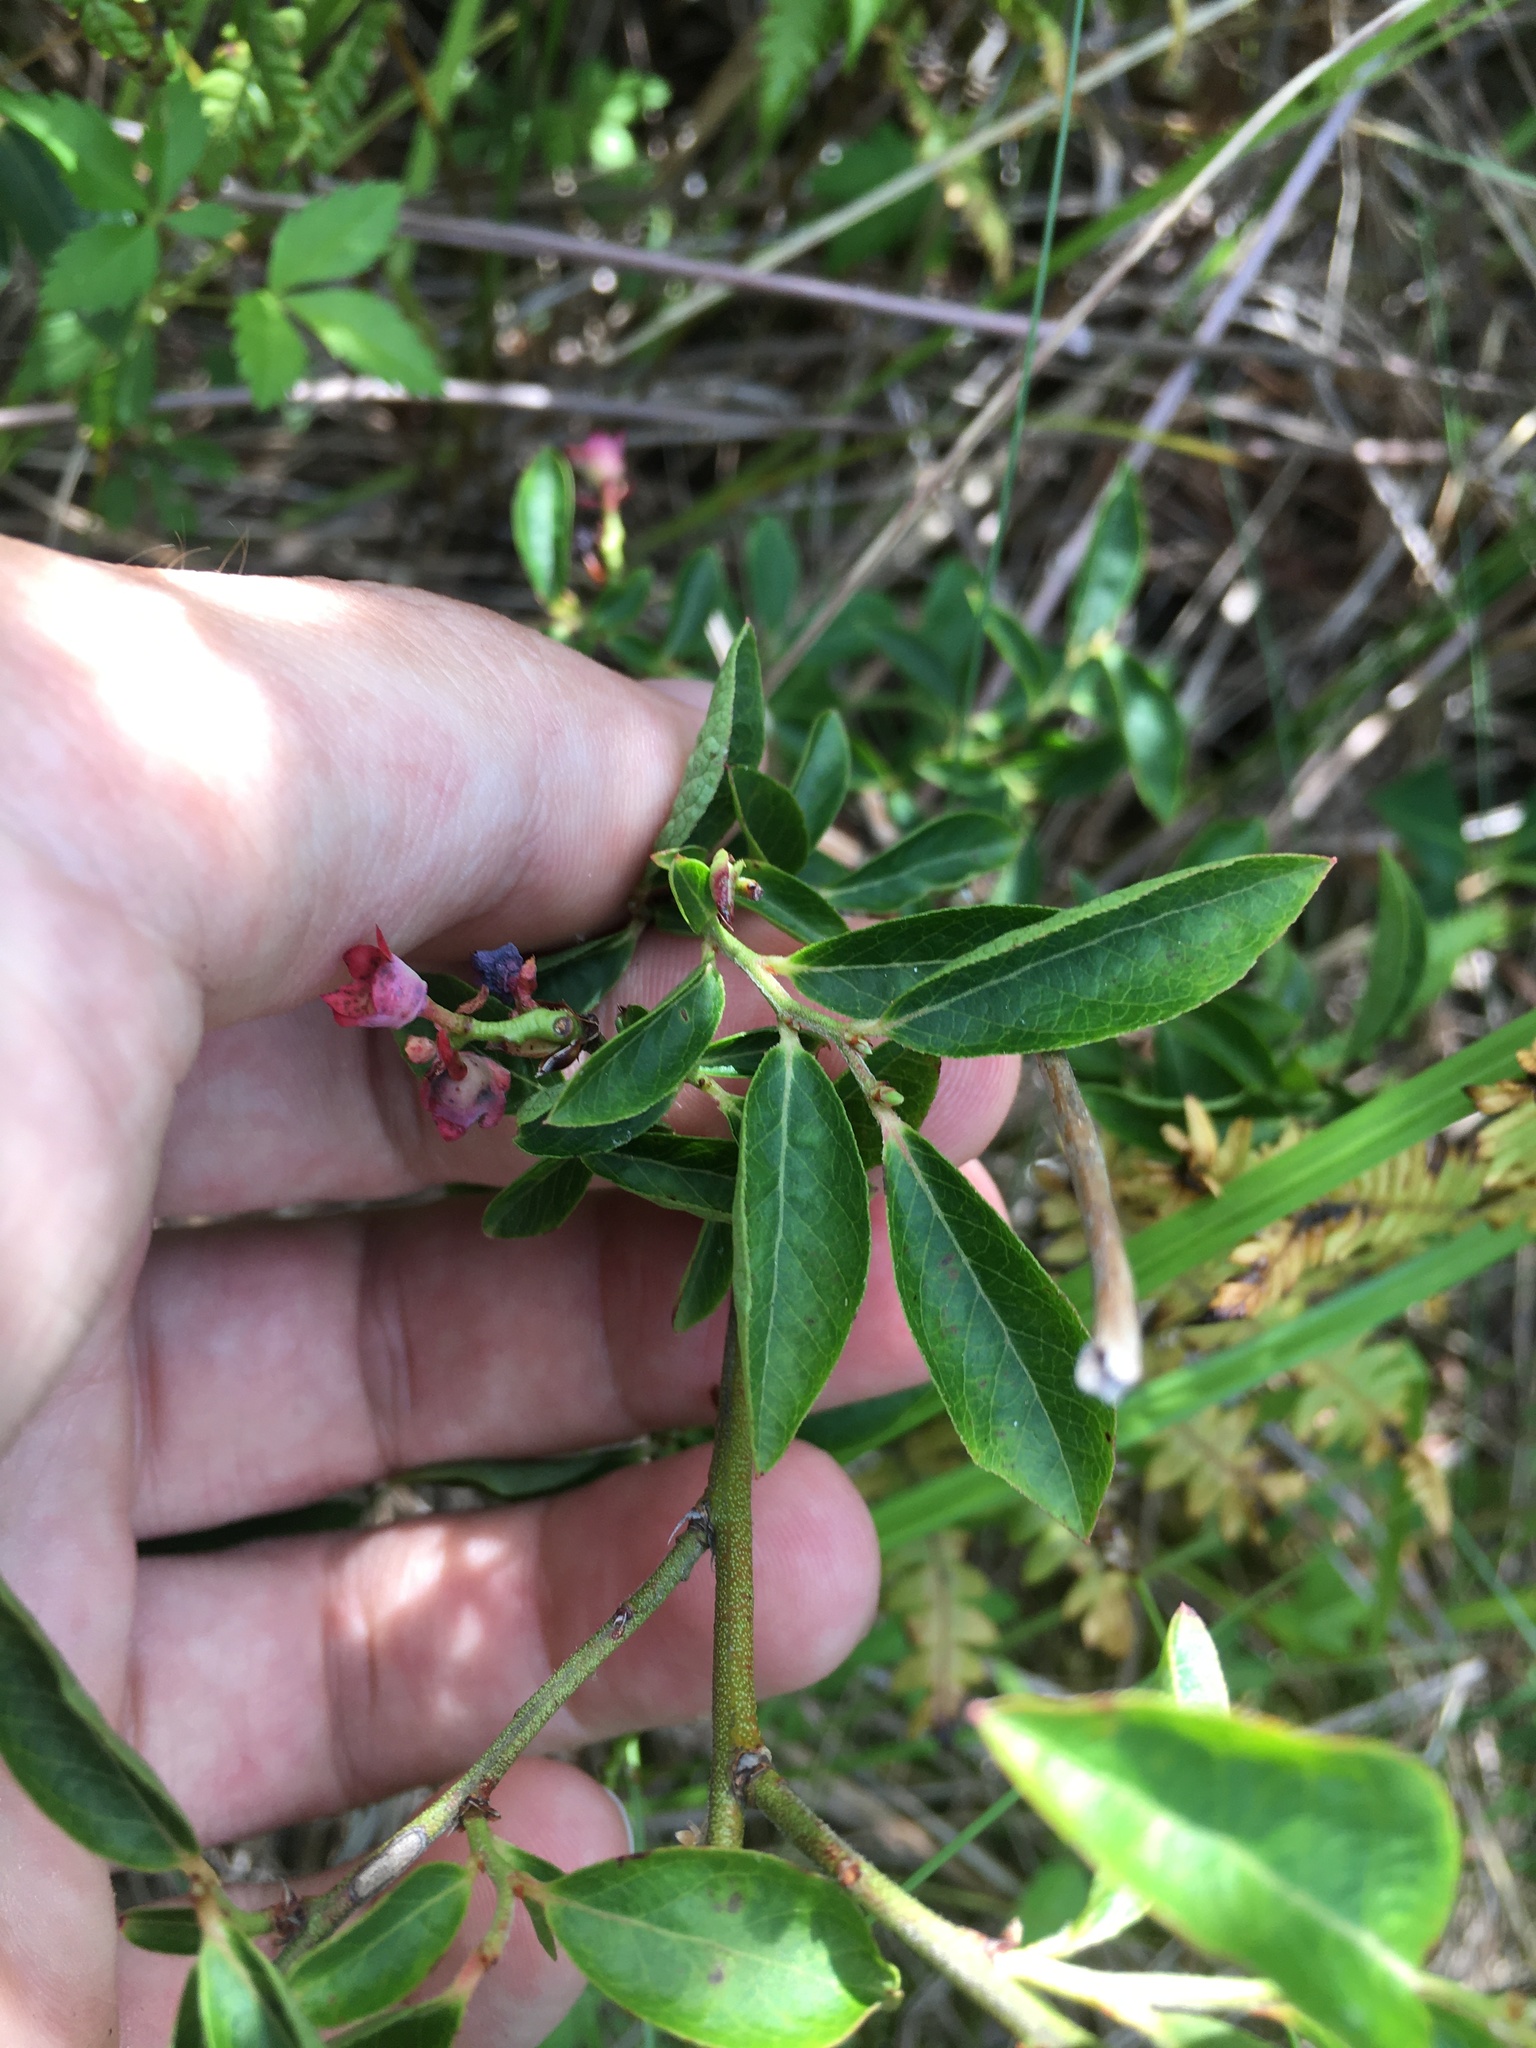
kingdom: Plantae
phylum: Tracheophyta
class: Magnoliopsida
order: Ericales
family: Ericaceae
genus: Vaccinium
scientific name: Vaccinium angustifolium
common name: Early lowbush blueberry
